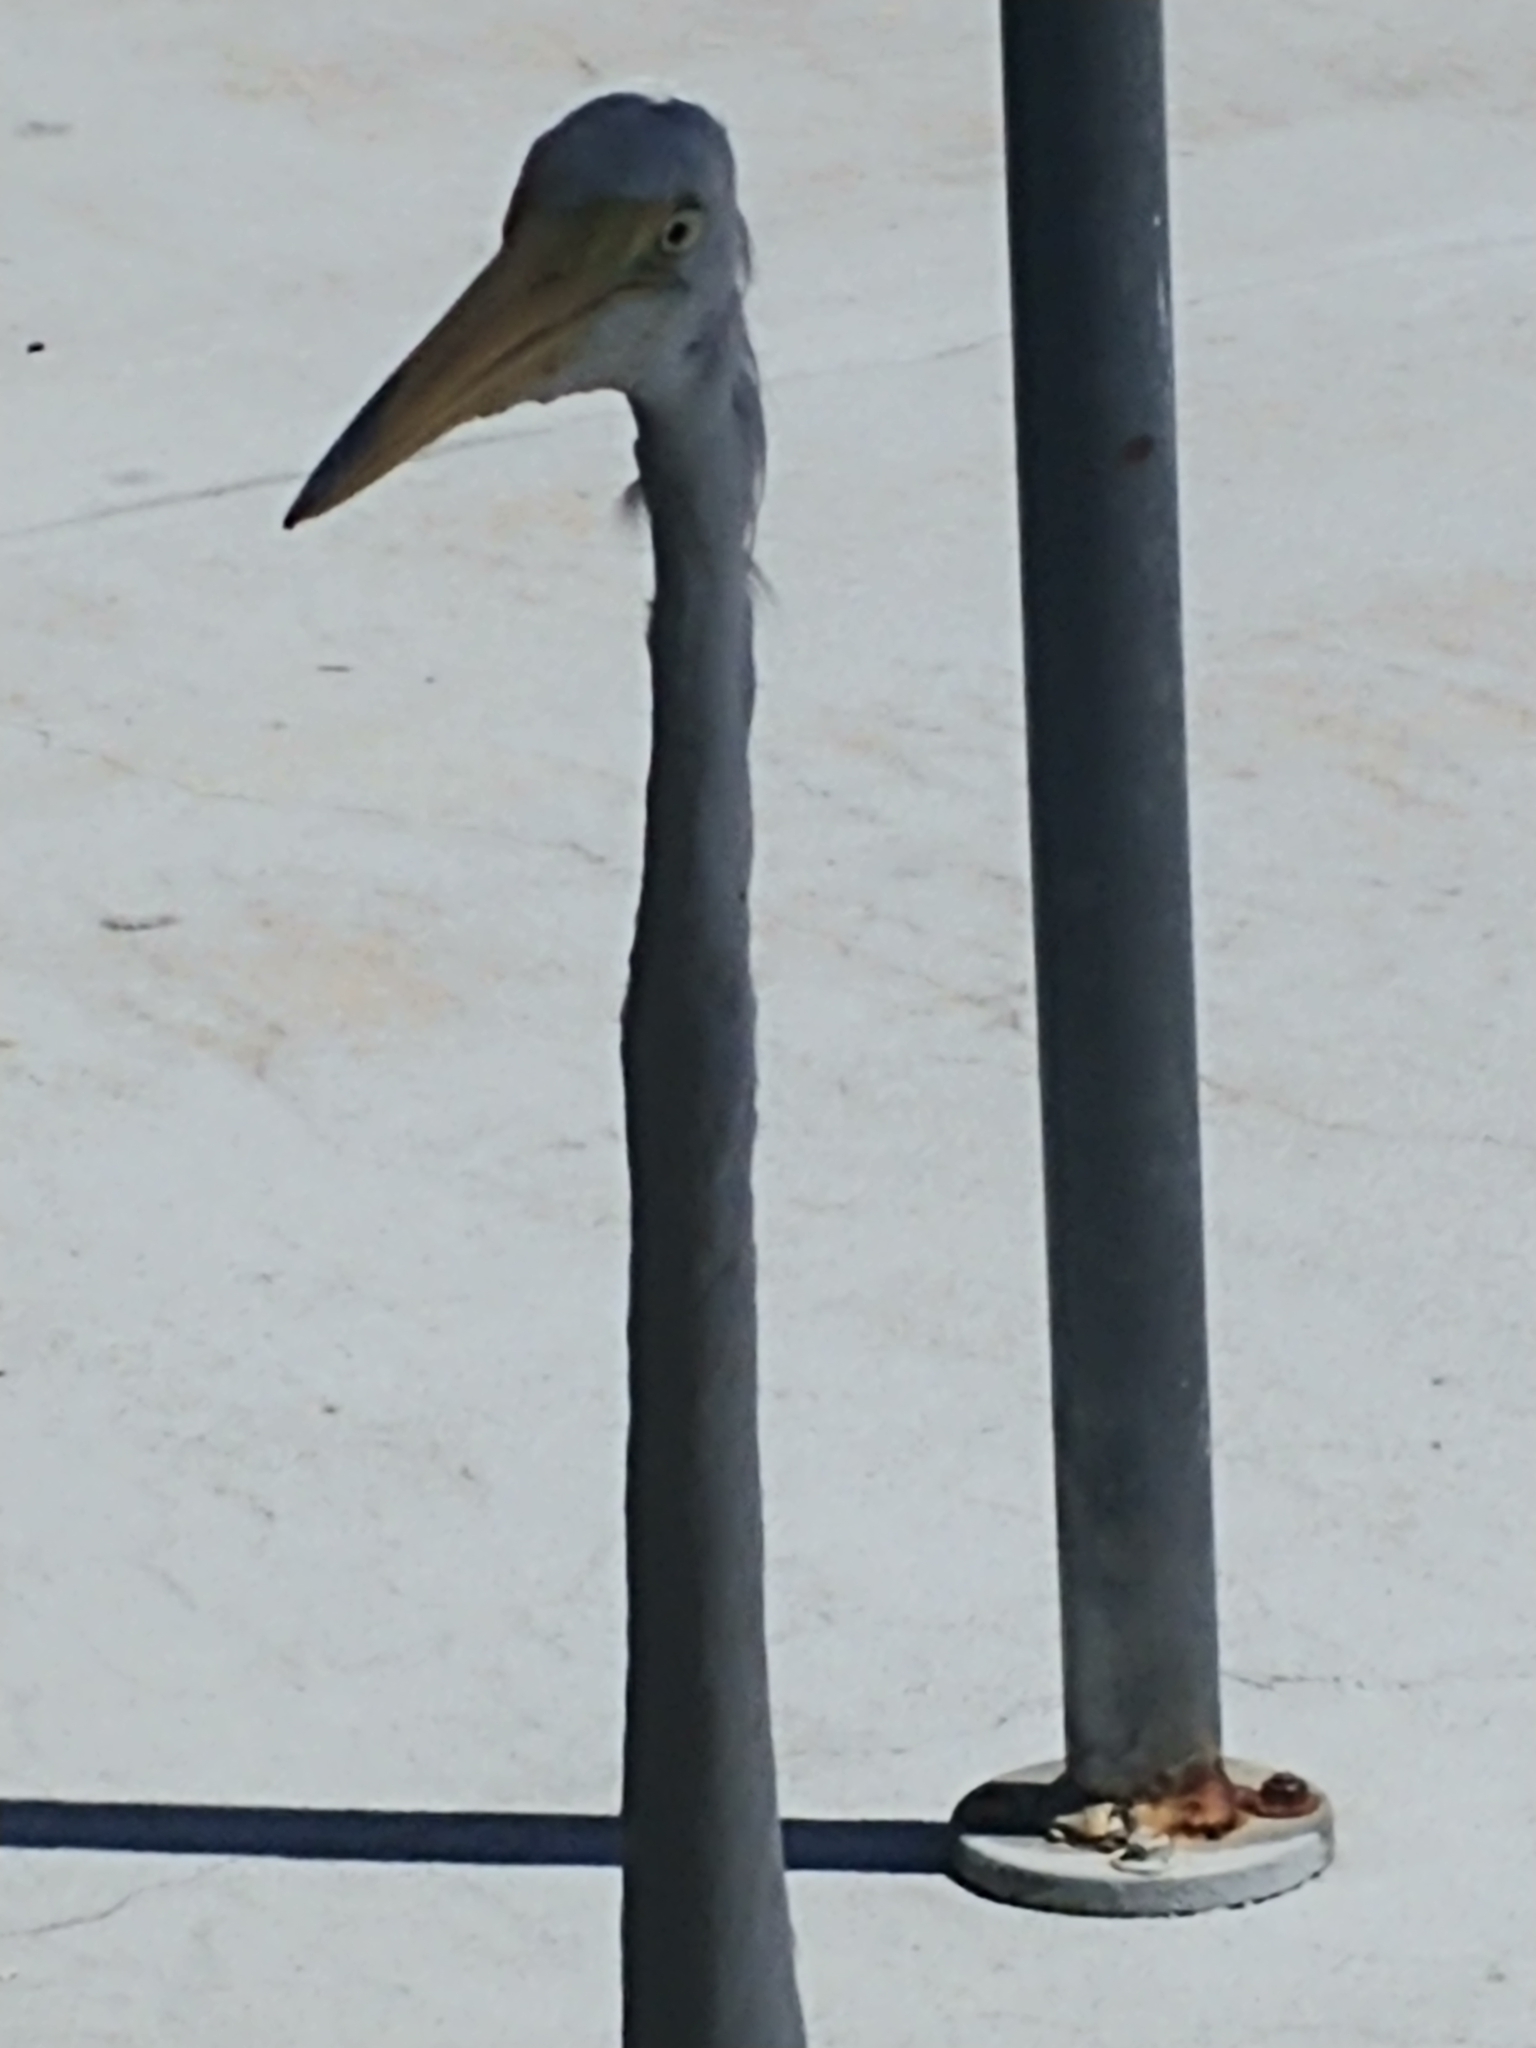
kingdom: Animalia
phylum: Chordata
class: Aves
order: Pelecaniformes
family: Ardeidae
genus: Ardea
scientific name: Ardea alba
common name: Great egret
